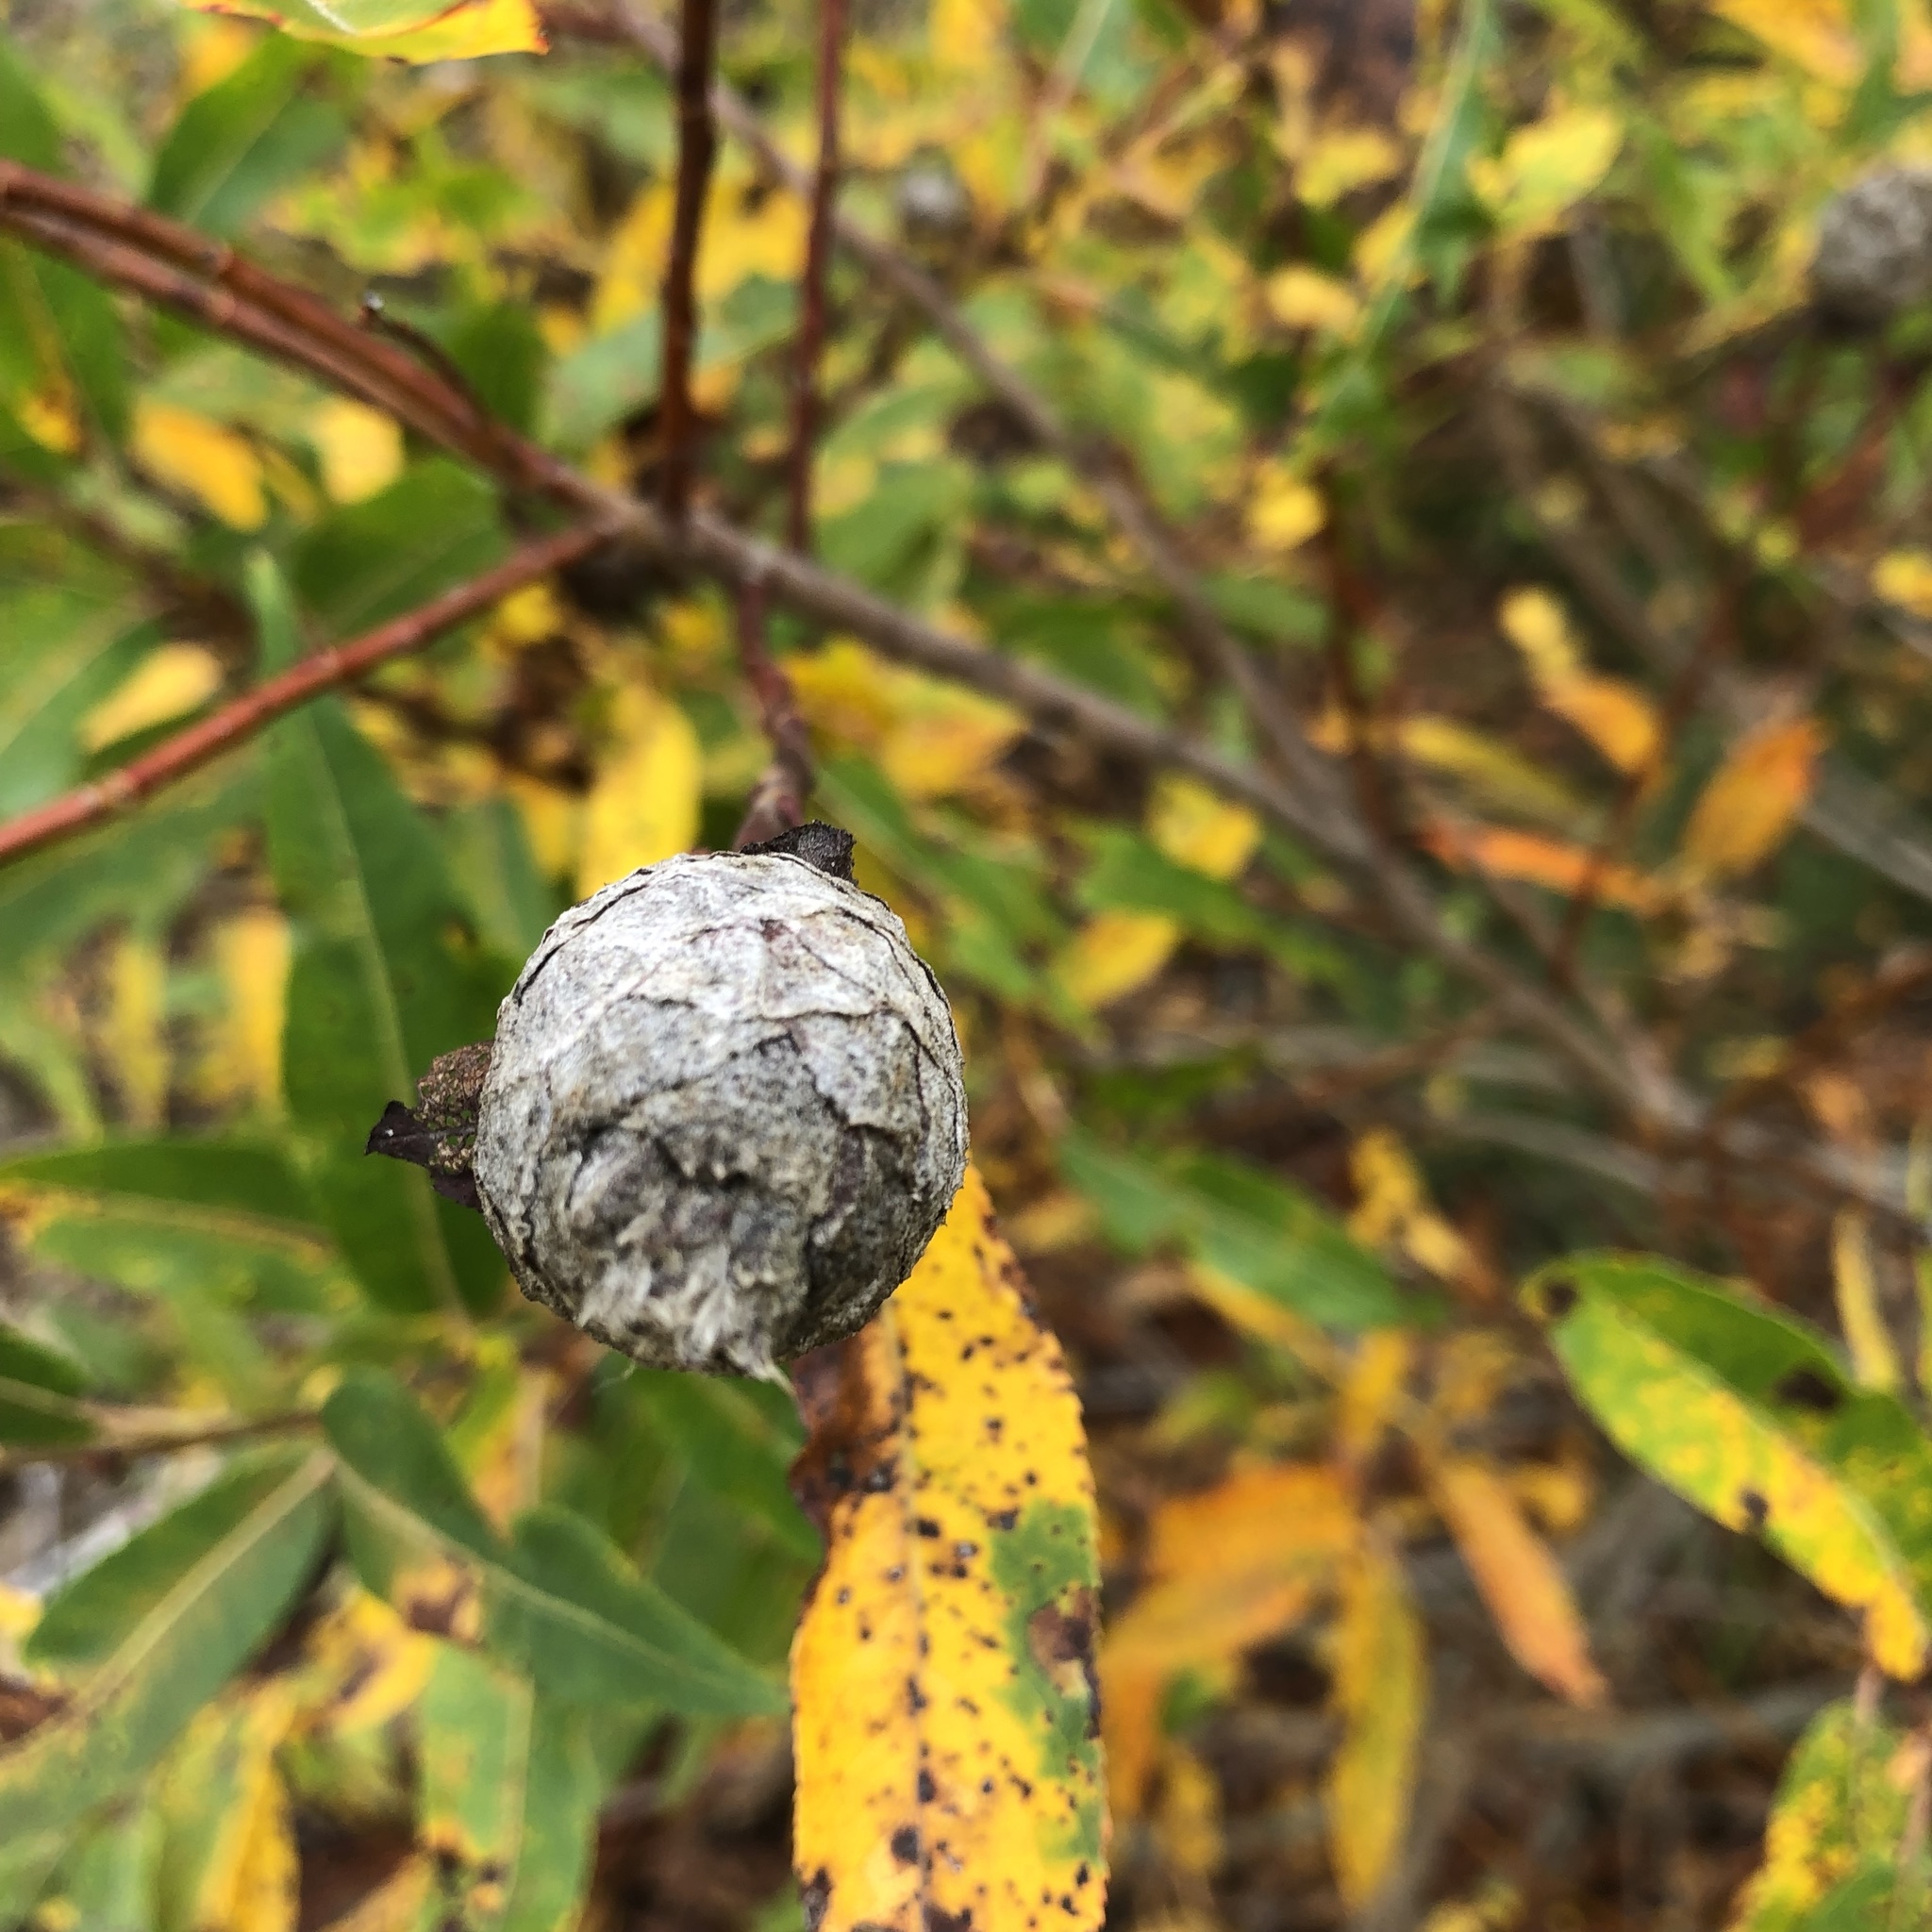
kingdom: Animalia
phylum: Arthropoda
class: Insecta
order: Diptera
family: Cecidomyiidae
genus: Rabdophaga
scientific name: Rabdophaga strobiloides
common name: Willow pinecone gall midge
